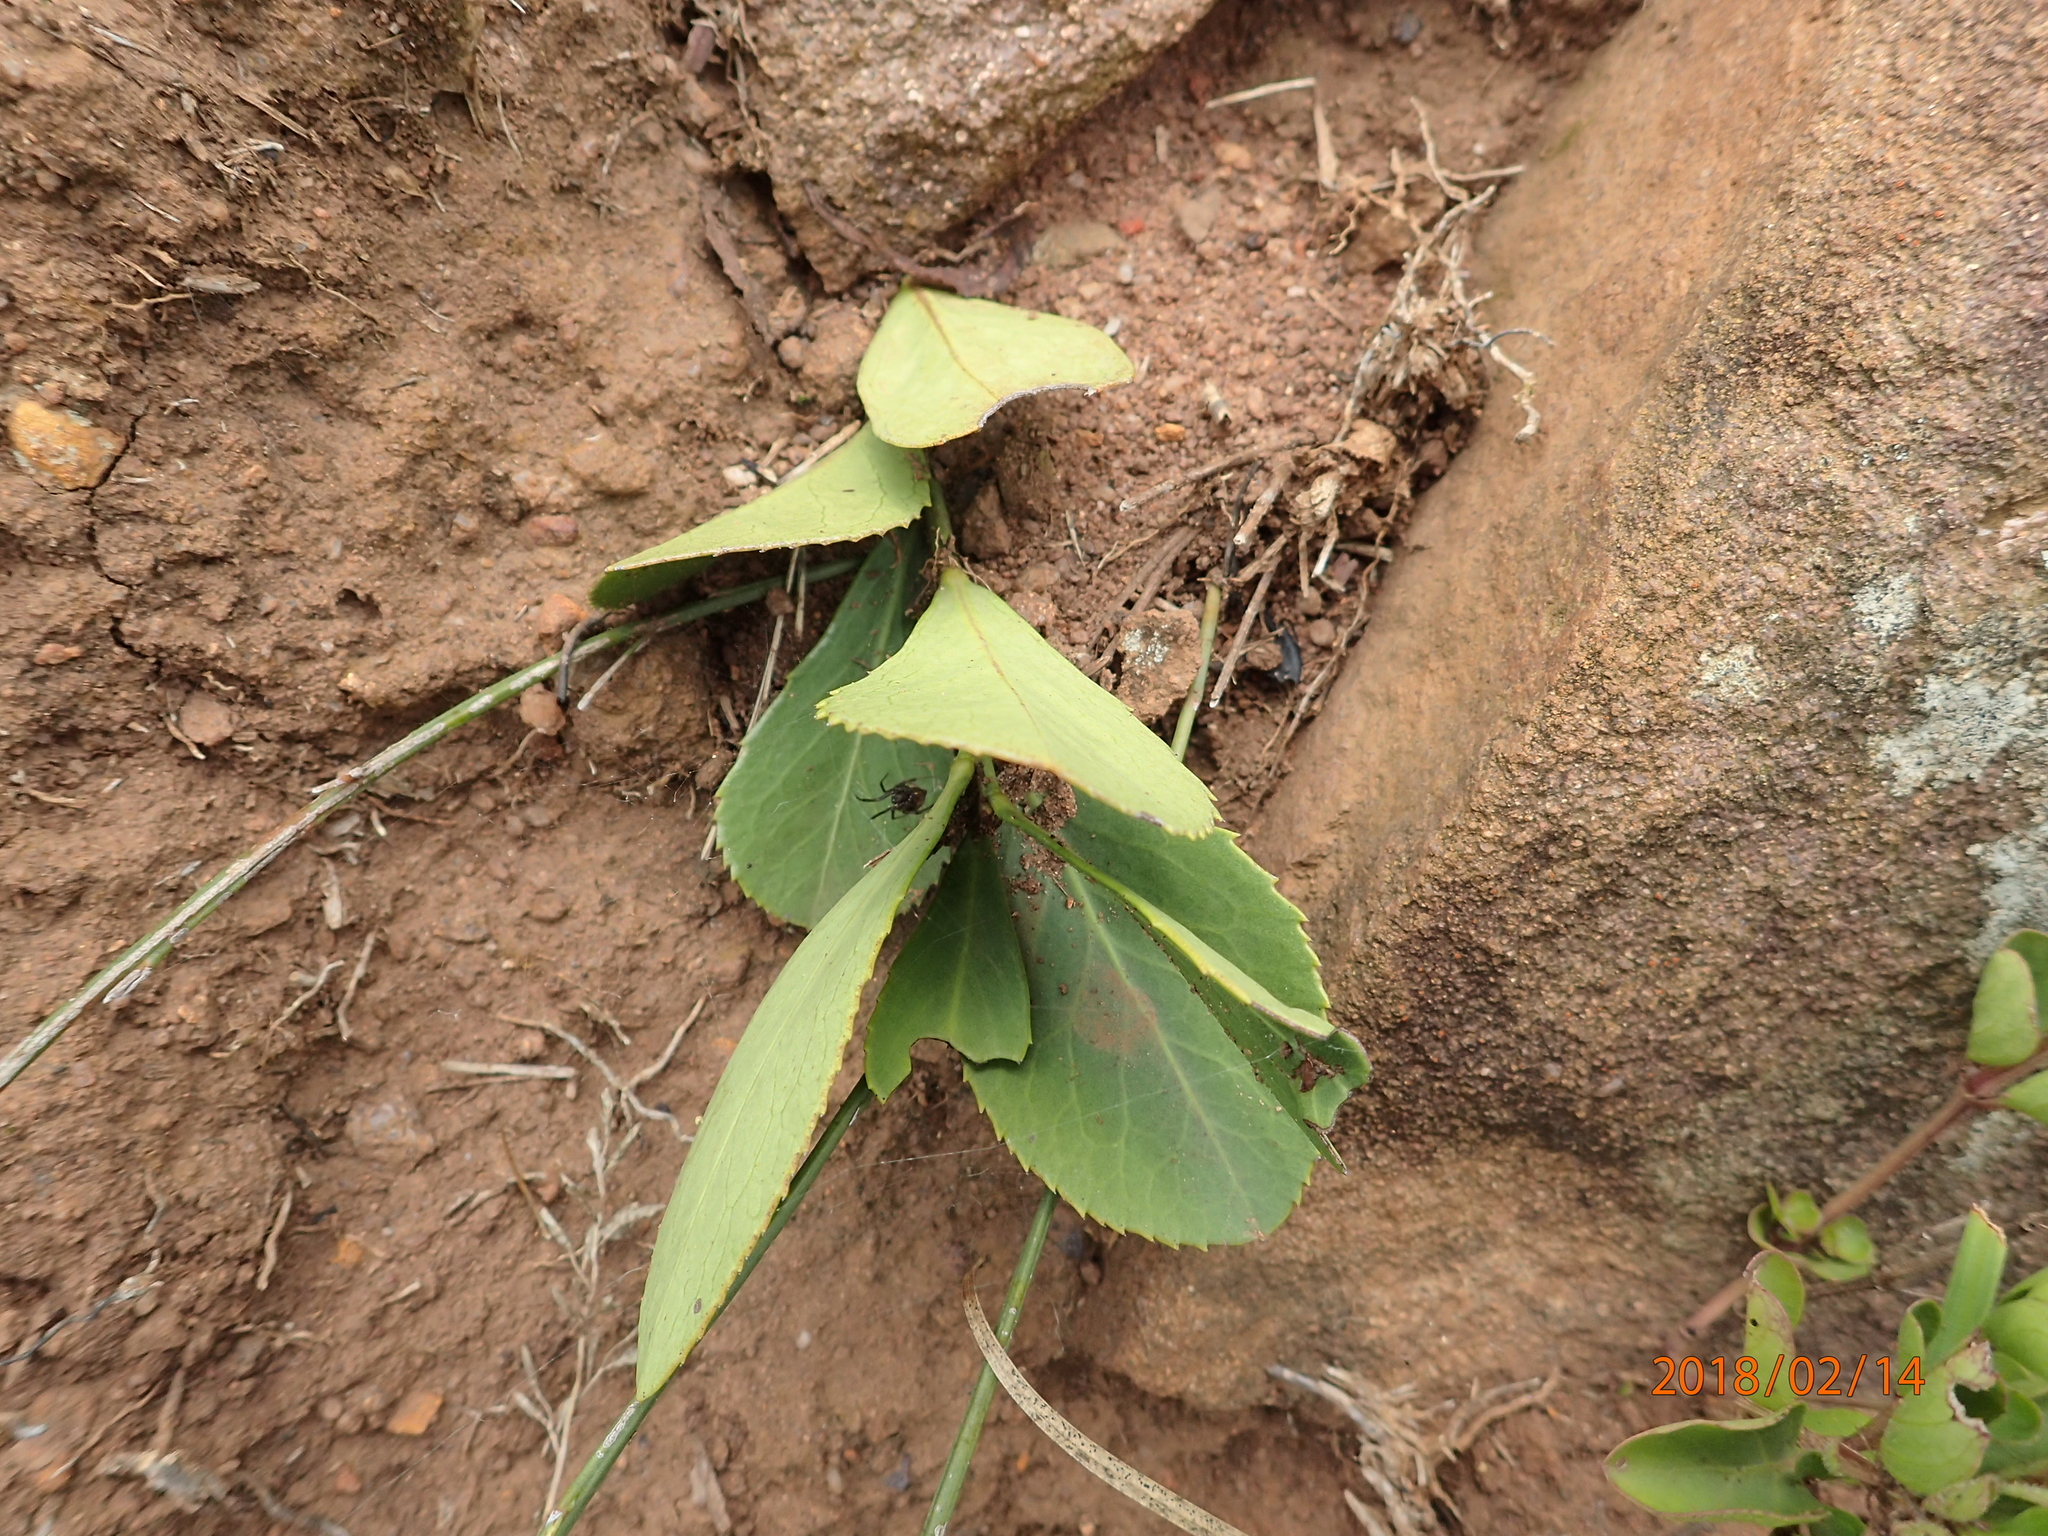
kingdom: Plantae
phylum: Tracheophyta
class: Magnoliopsida
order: Celastrales
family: Celastraceae
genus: Gymnosporia
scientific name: Gymnosporia woodii
